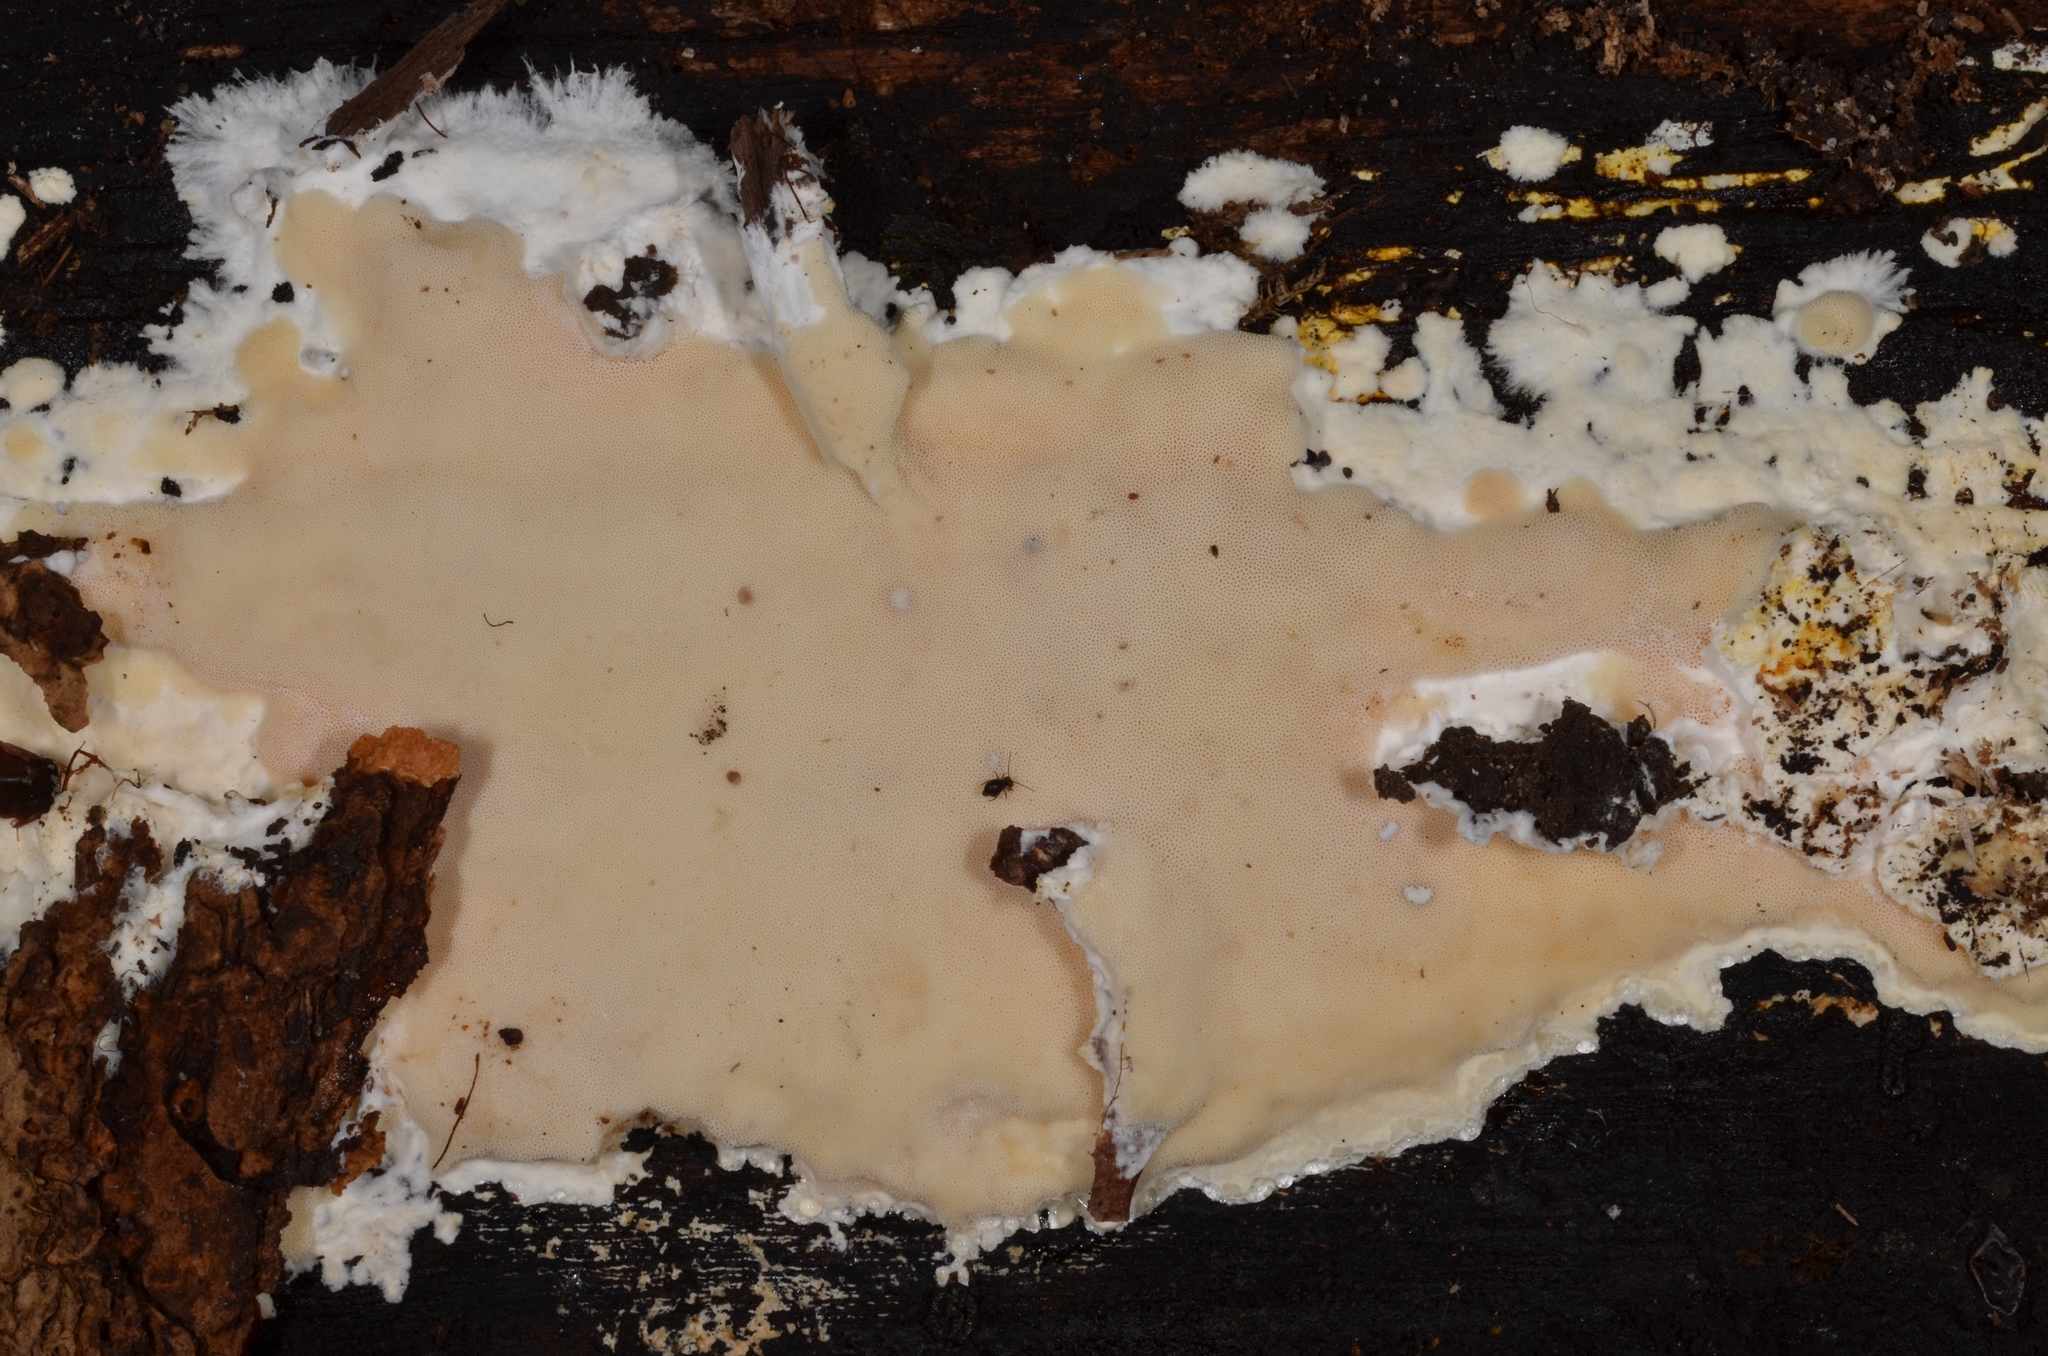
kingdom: Fungi
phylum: Basidiomycota
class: Agaricomycetes
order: Polyporales
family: Irpicaceae
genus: Gloeoporus
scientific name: Gloeoporus pannocinctus
